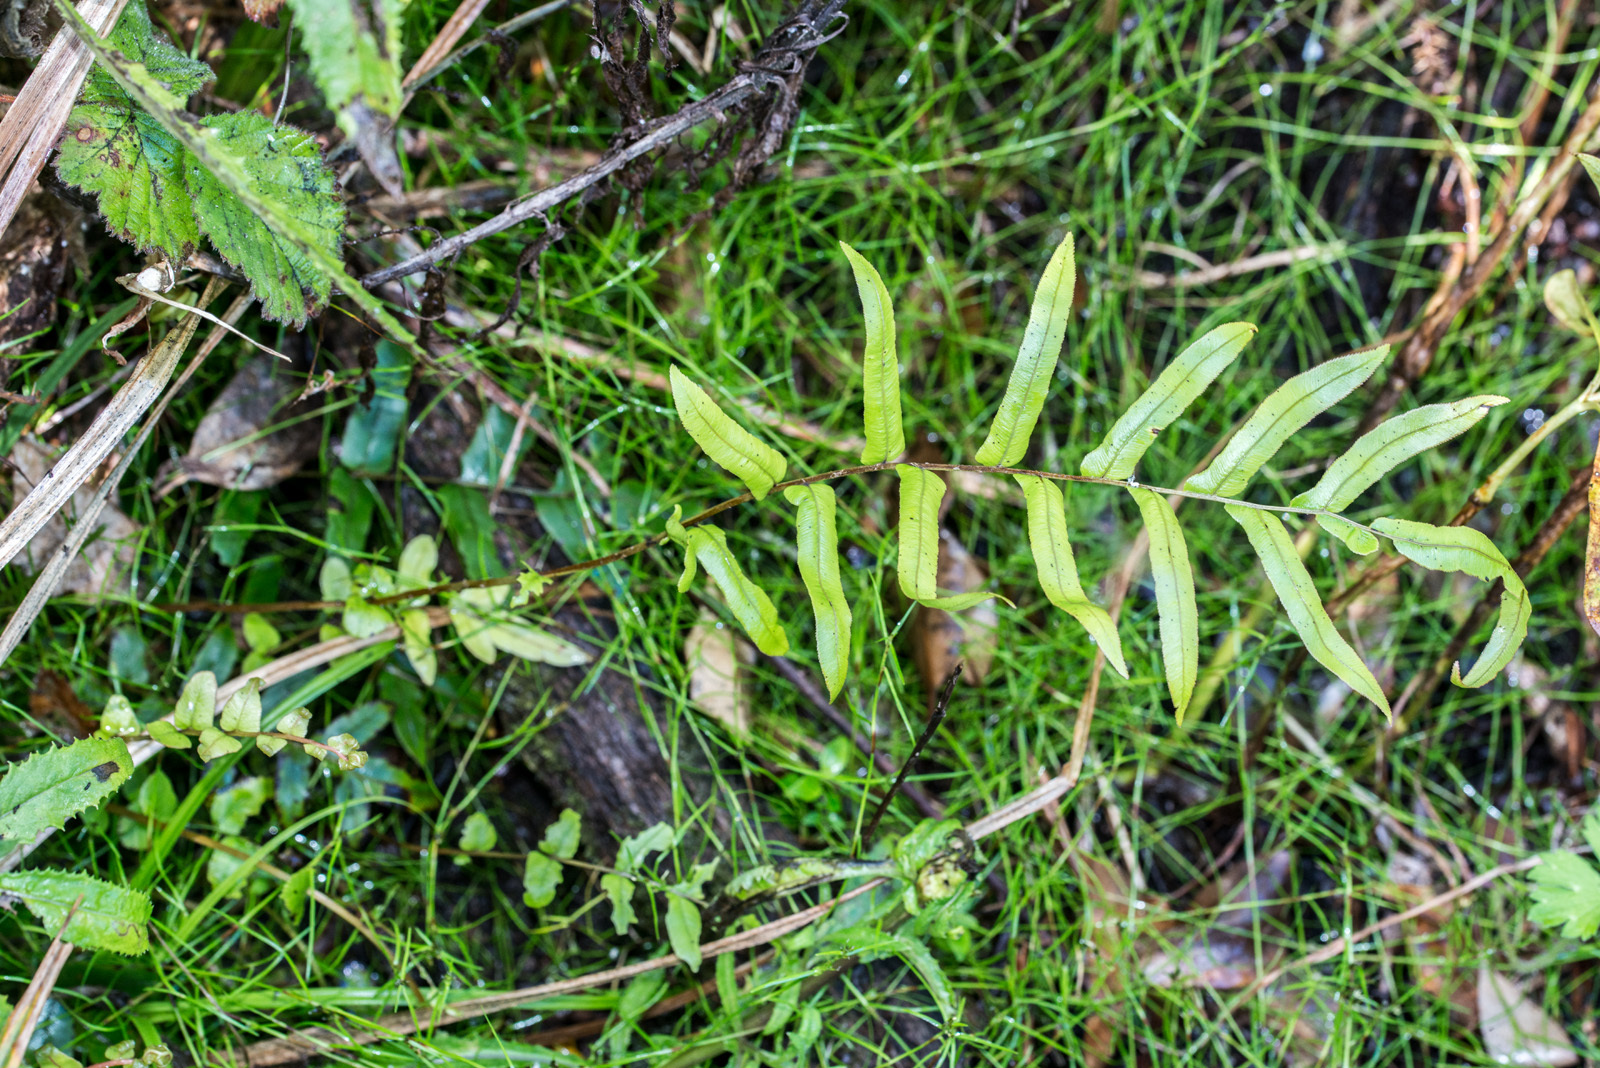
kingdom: Plantae
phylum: Tracheophyta
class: Polypodiopsida
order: Polypodiales
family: Blechnaceae
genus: Parablechnum
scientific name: Parablechnum minus
